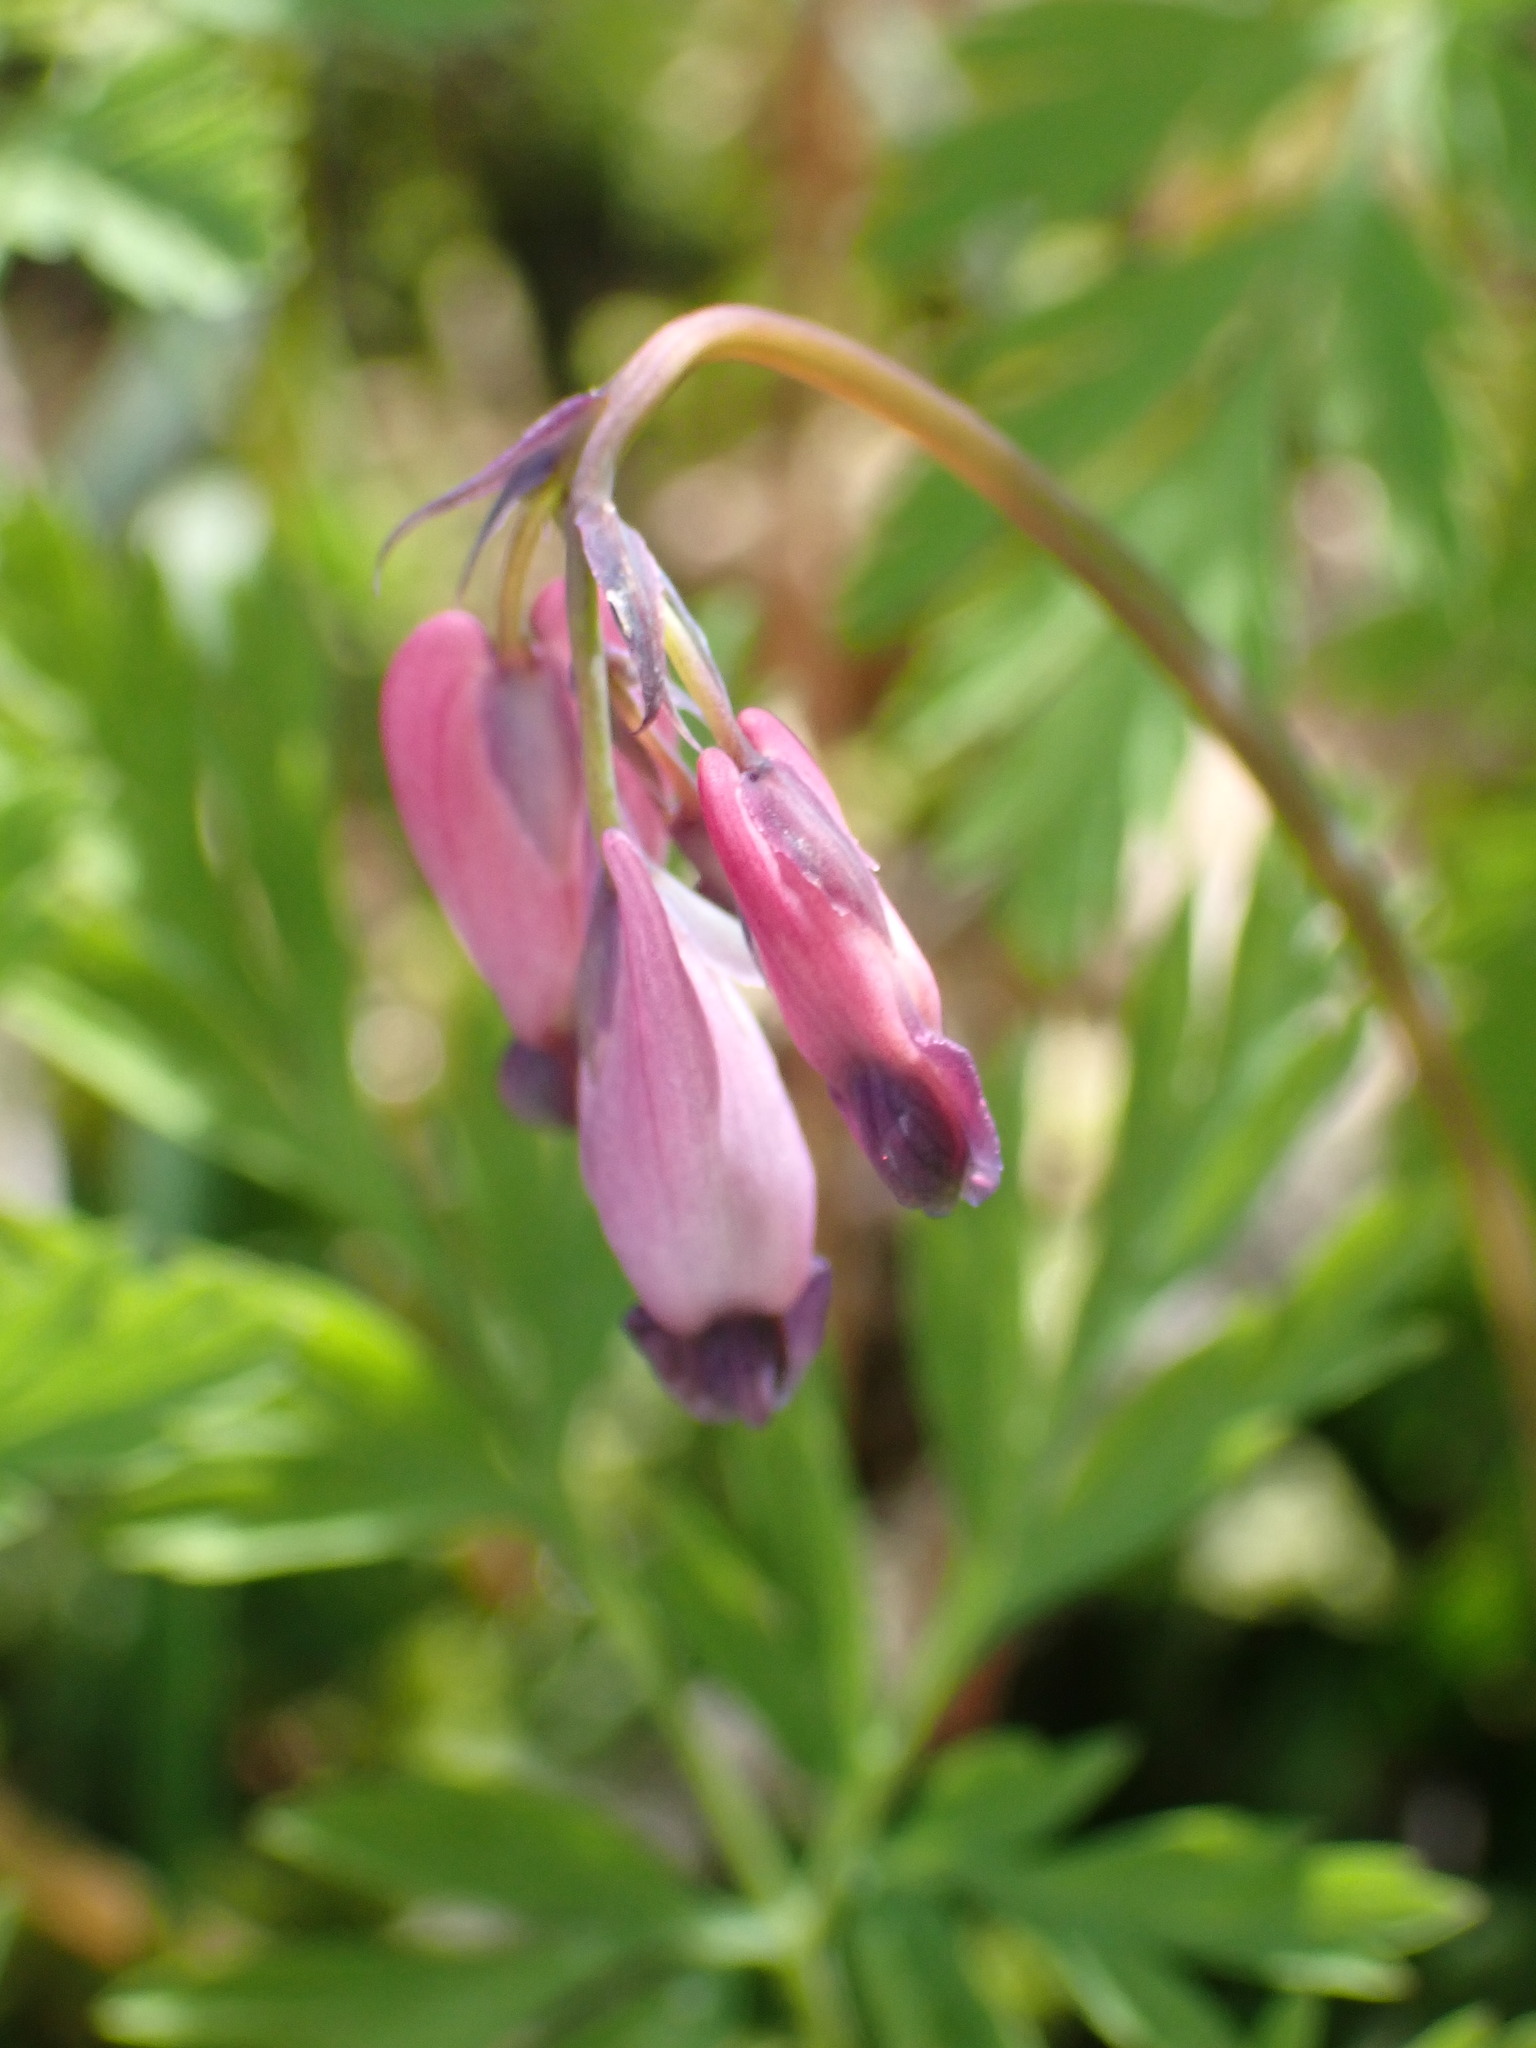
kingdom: Plantae
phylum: Tracheophyta
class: Magnoliopsida
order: Ranunculales
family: Papaveraceae
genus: Dicentra
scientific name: Dicentra formosa
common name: Bleeding-heart
